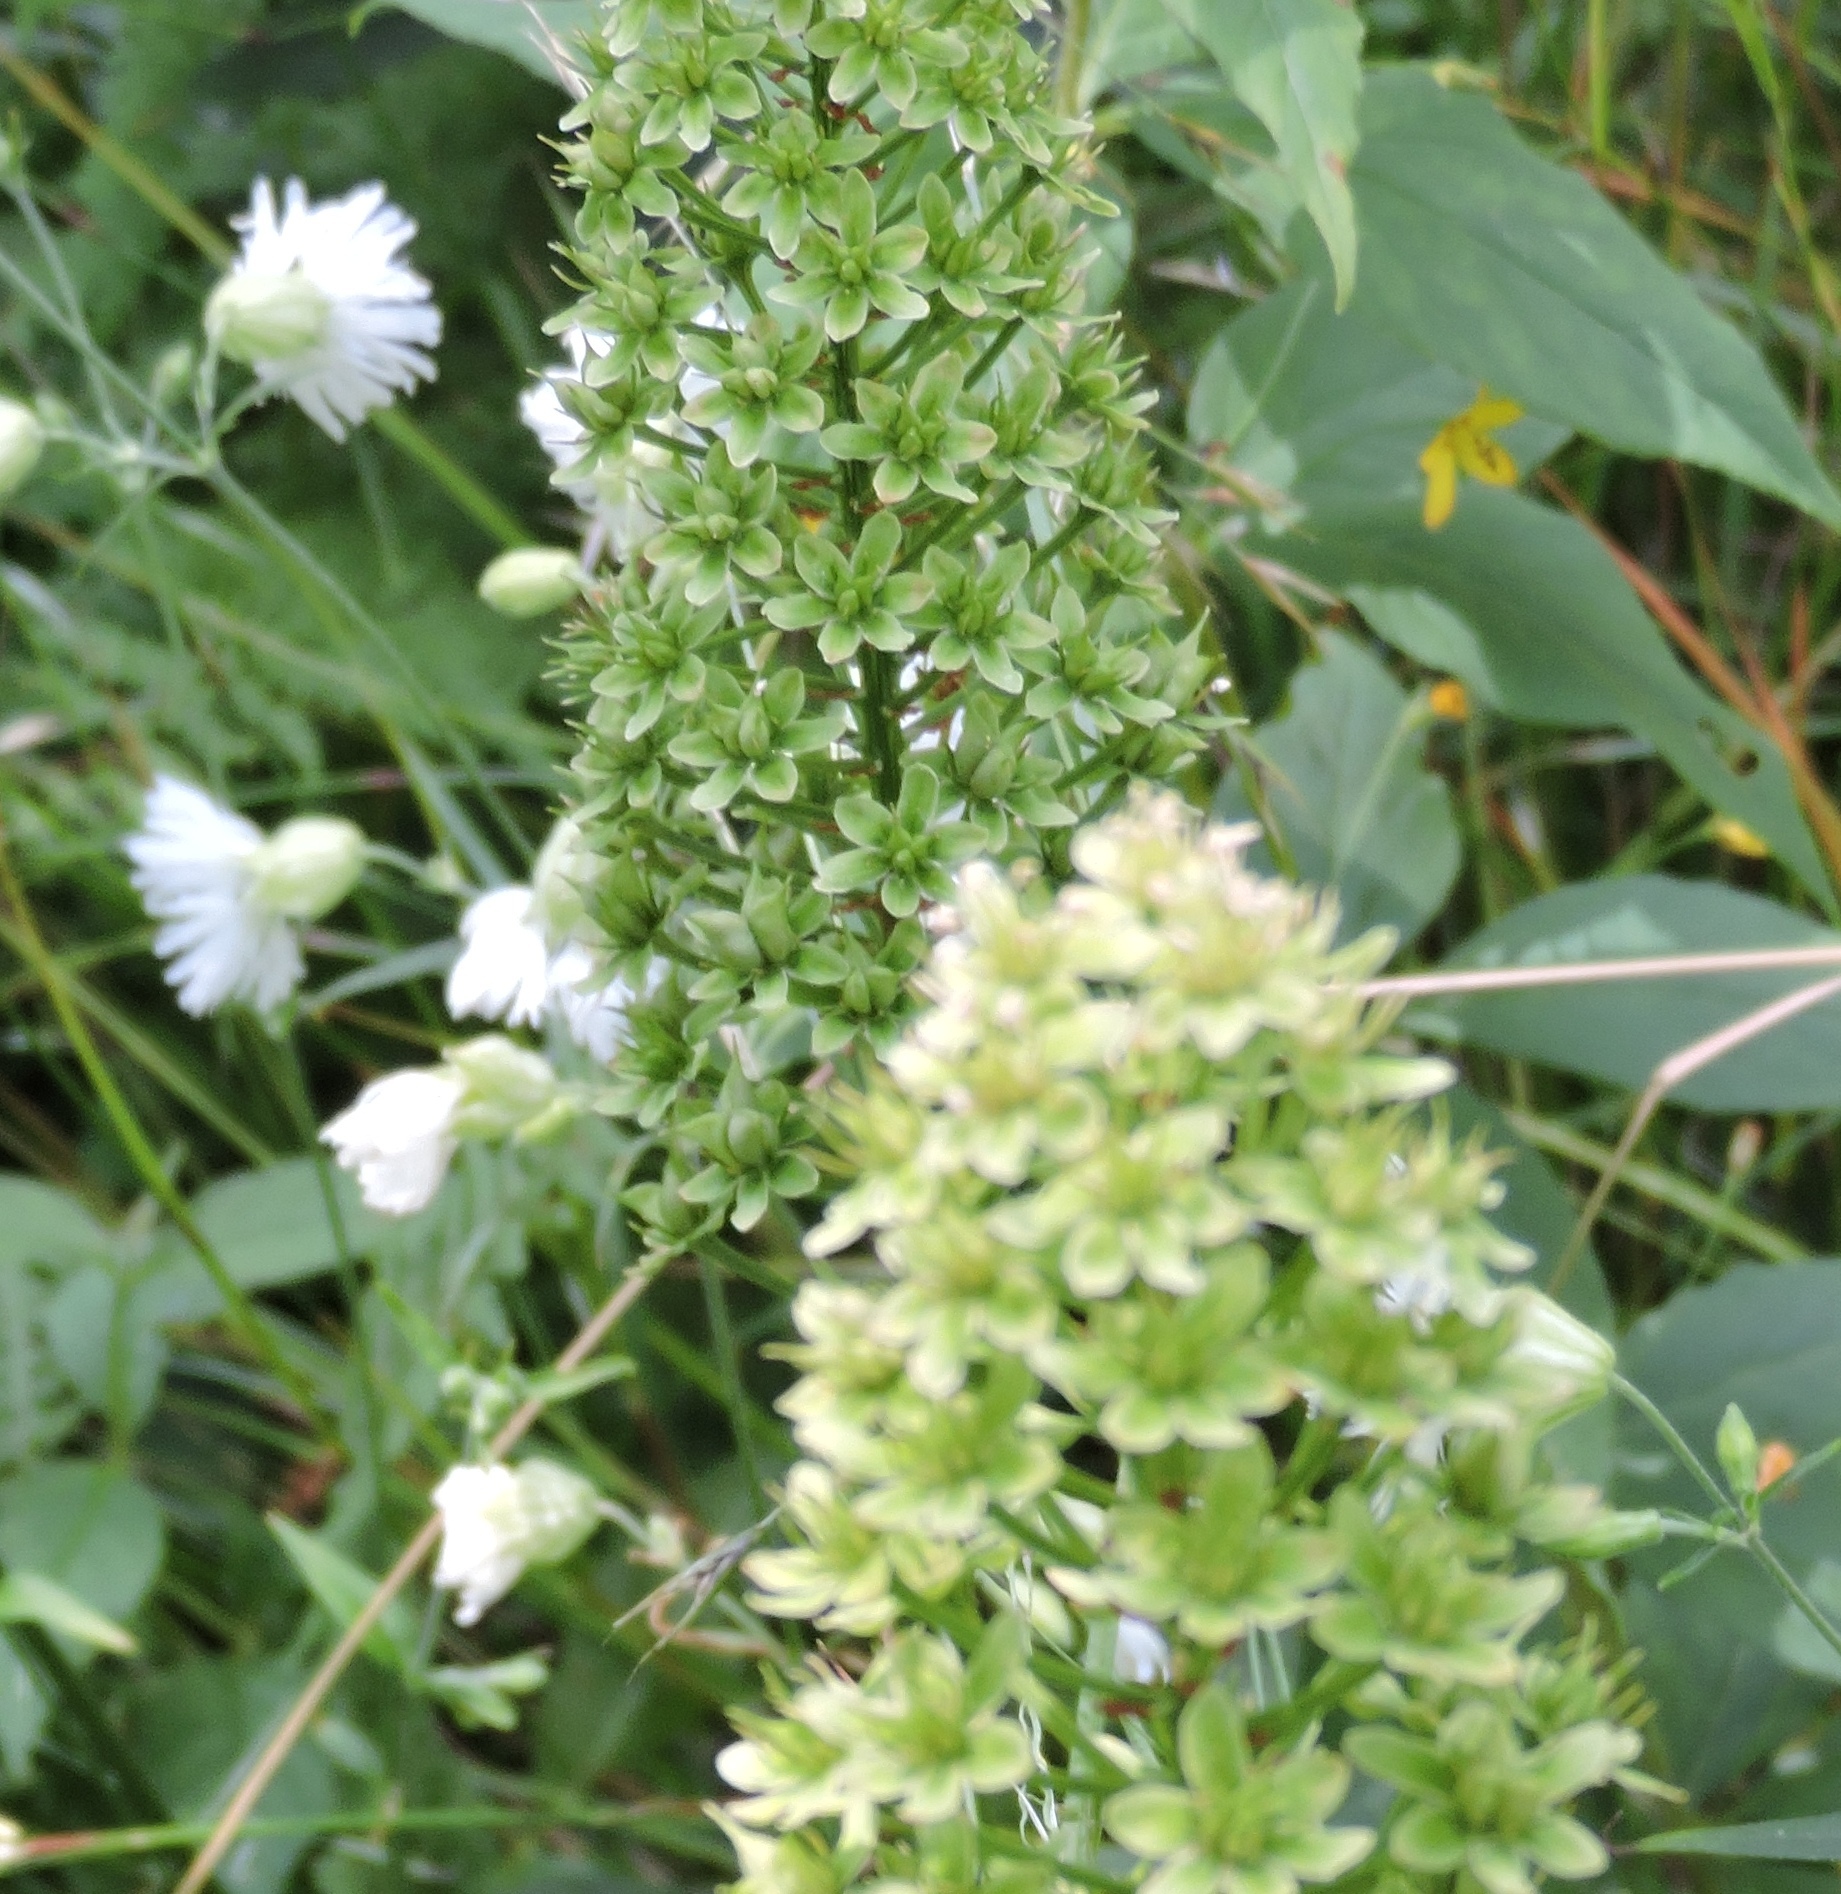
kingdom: Plantae
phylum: Tracheophyta
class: Liliopsida
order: Liliales
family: Melanthiaceae
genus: Amianthium
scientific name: Amianthium muscitoxicum
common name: Fly-poison
